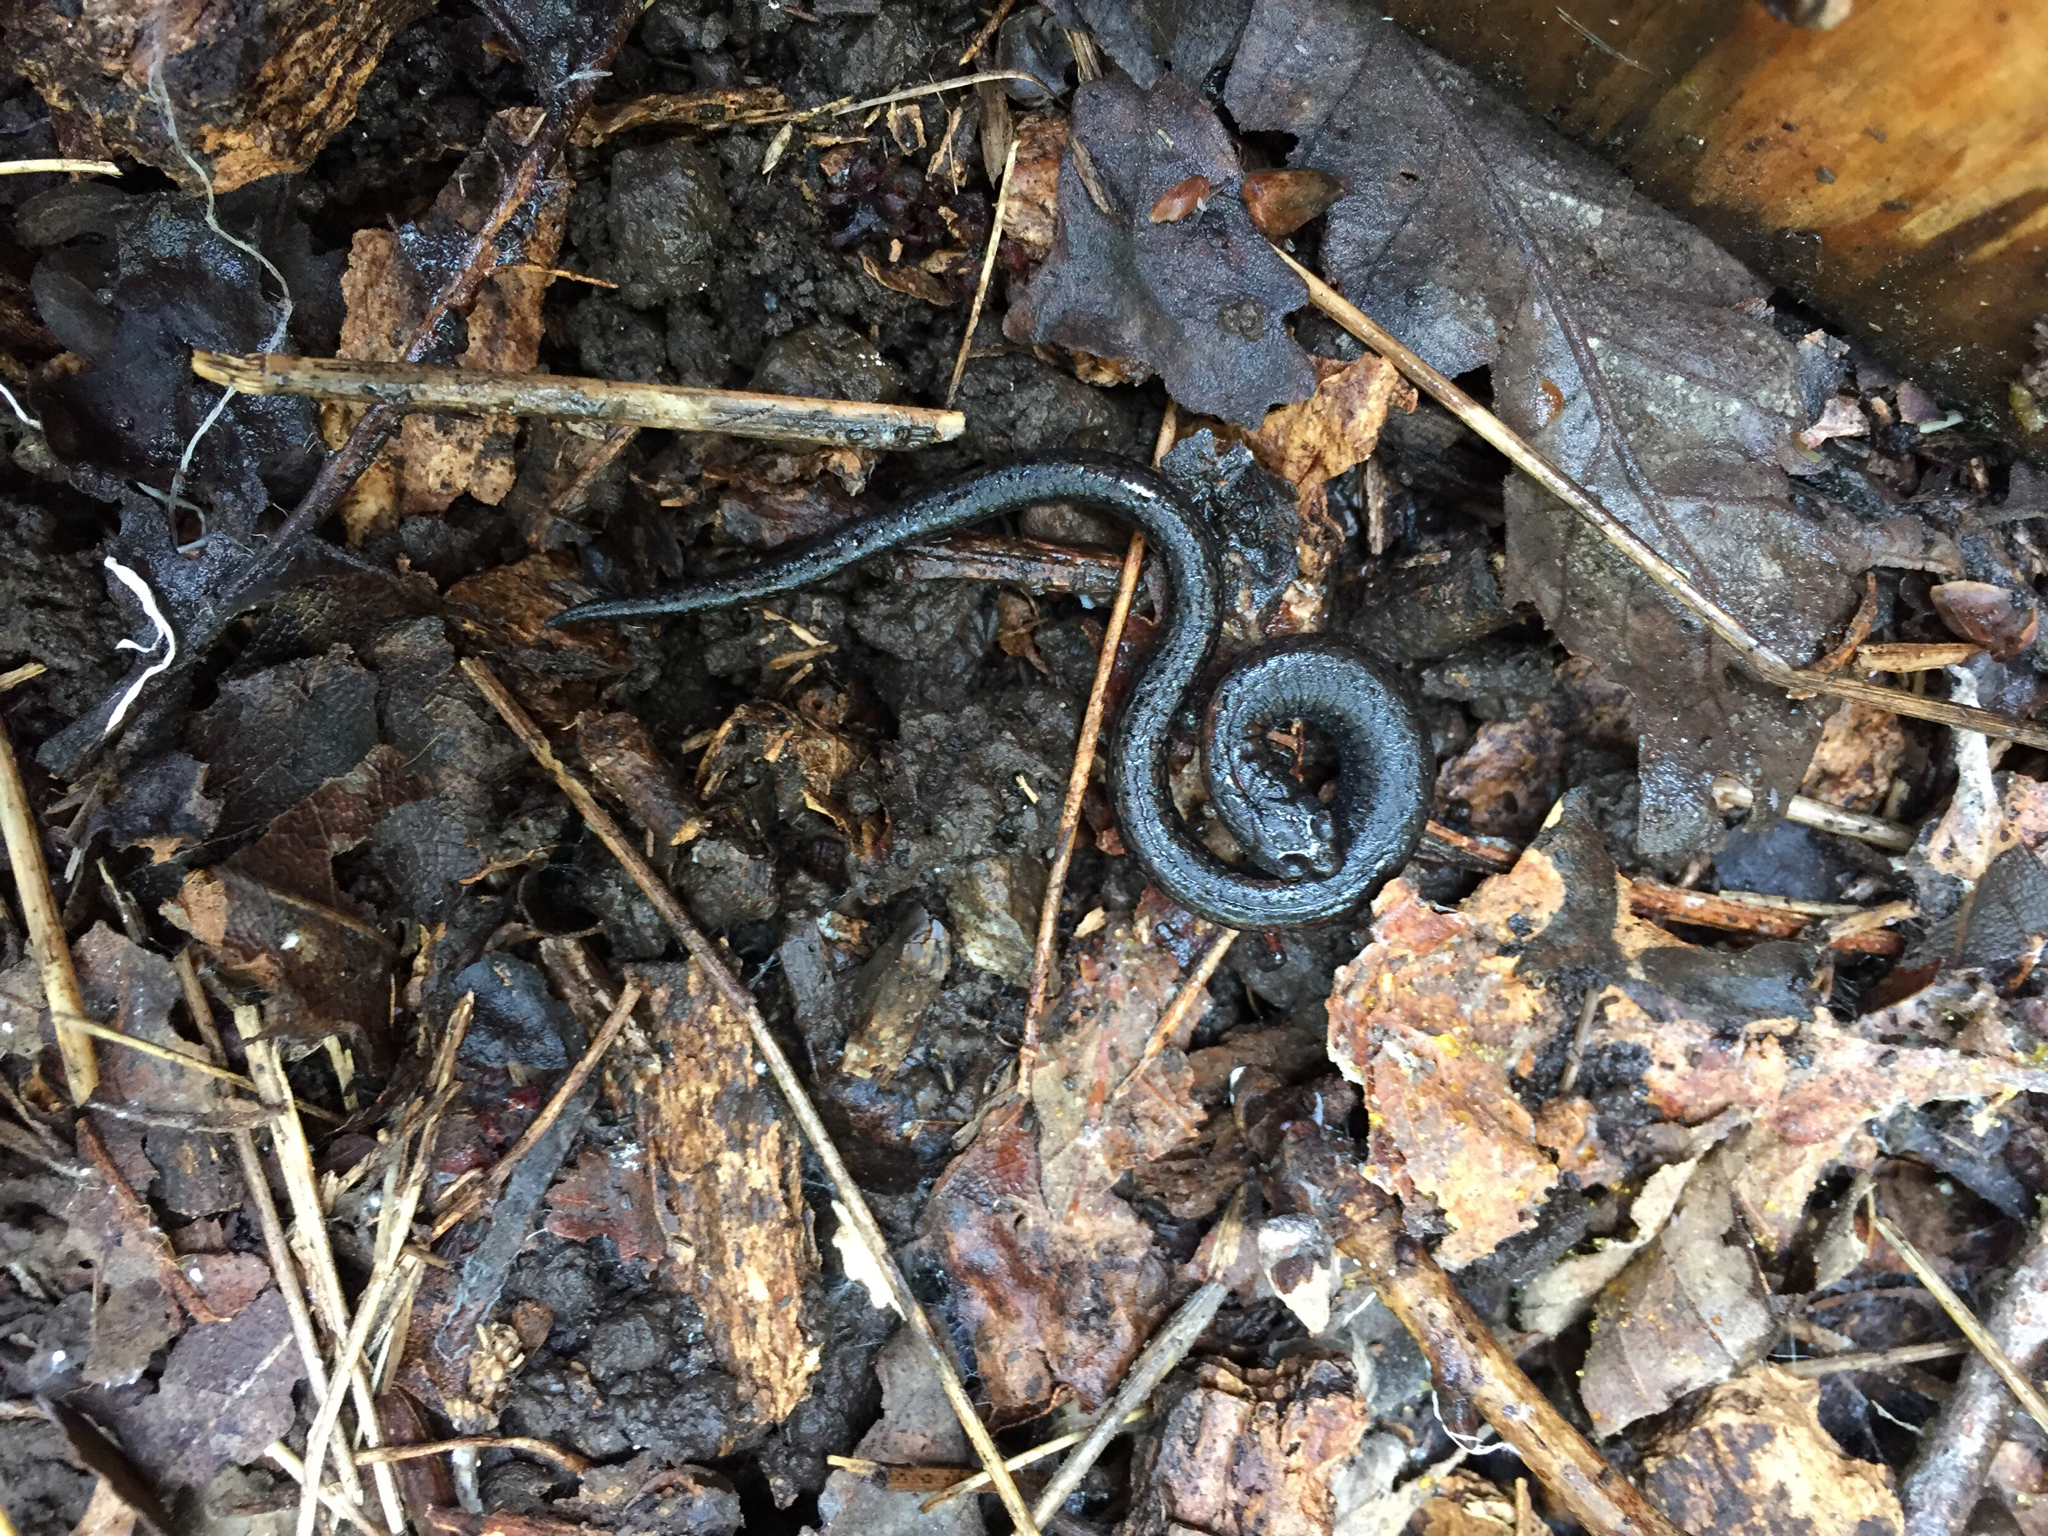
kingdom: Animalia
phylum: Chordata
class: Amphibia
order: Caudata
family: Plethodontidae
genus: Batrachoseps
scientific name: Batrachoseps attenuatus
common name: California slender salamander
